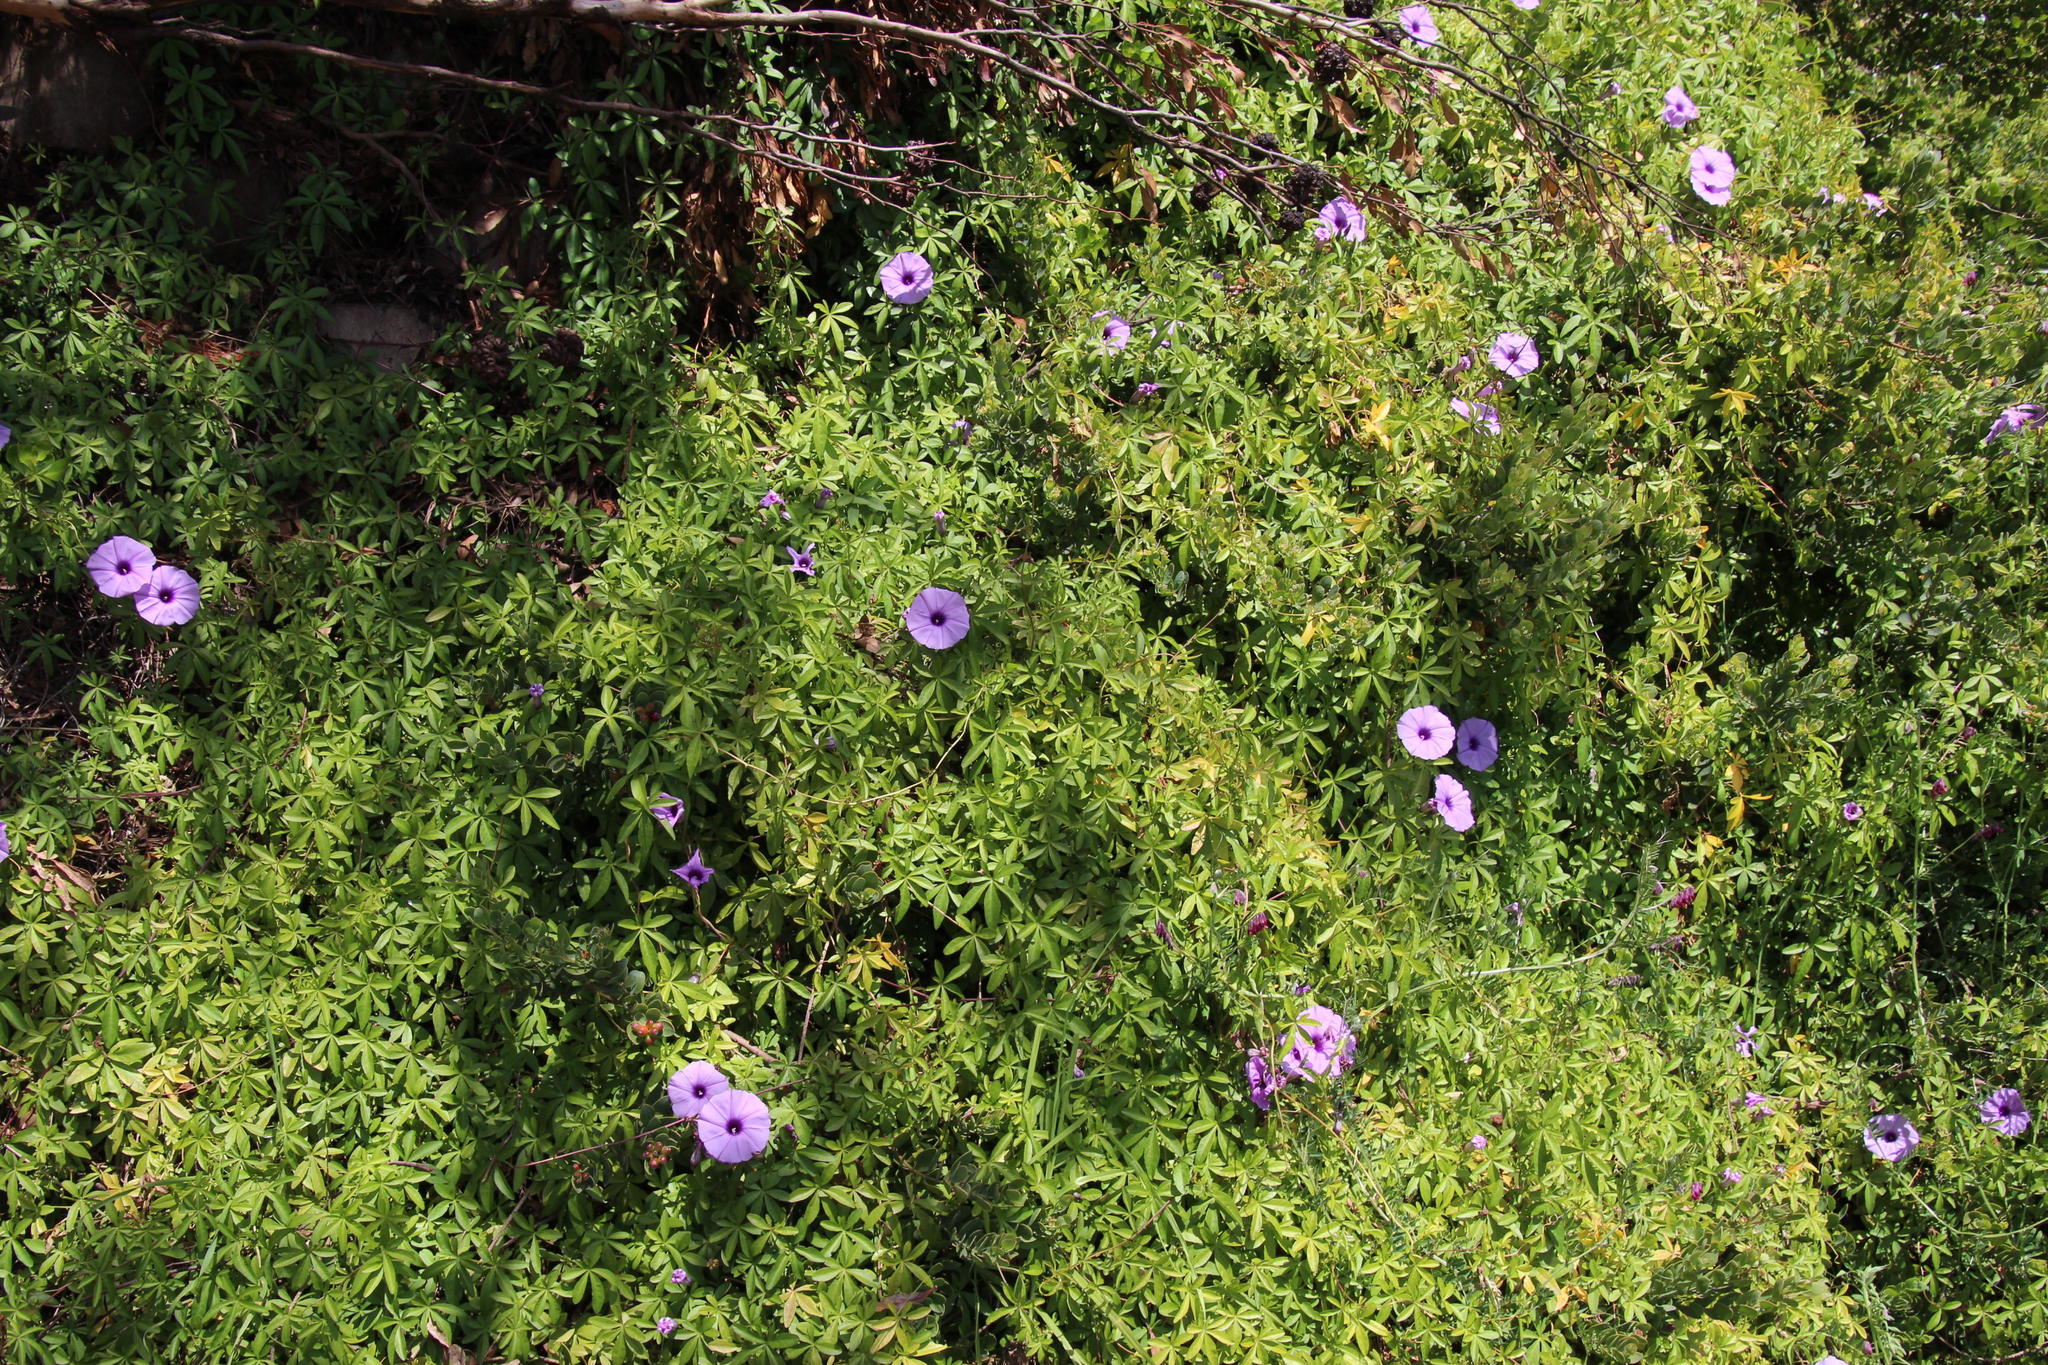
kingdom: Plantae
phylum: Tracheophyta
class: Magnoliopsida
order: Solanales
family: Convolvulaceae
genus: Ipomoea
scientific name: Ipomoea cairica
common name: Mile a minute vine
